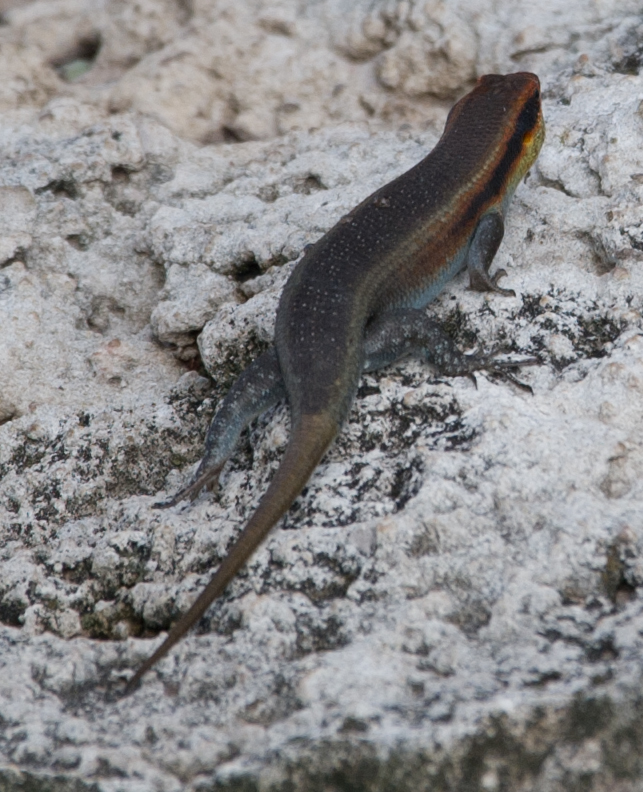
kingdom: Animalia
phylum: Chordata
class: Squamata
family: Scincidae
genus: Trachylepis
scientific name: Trachylepis wahlbergii
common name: Wahlberg’s striped skink
